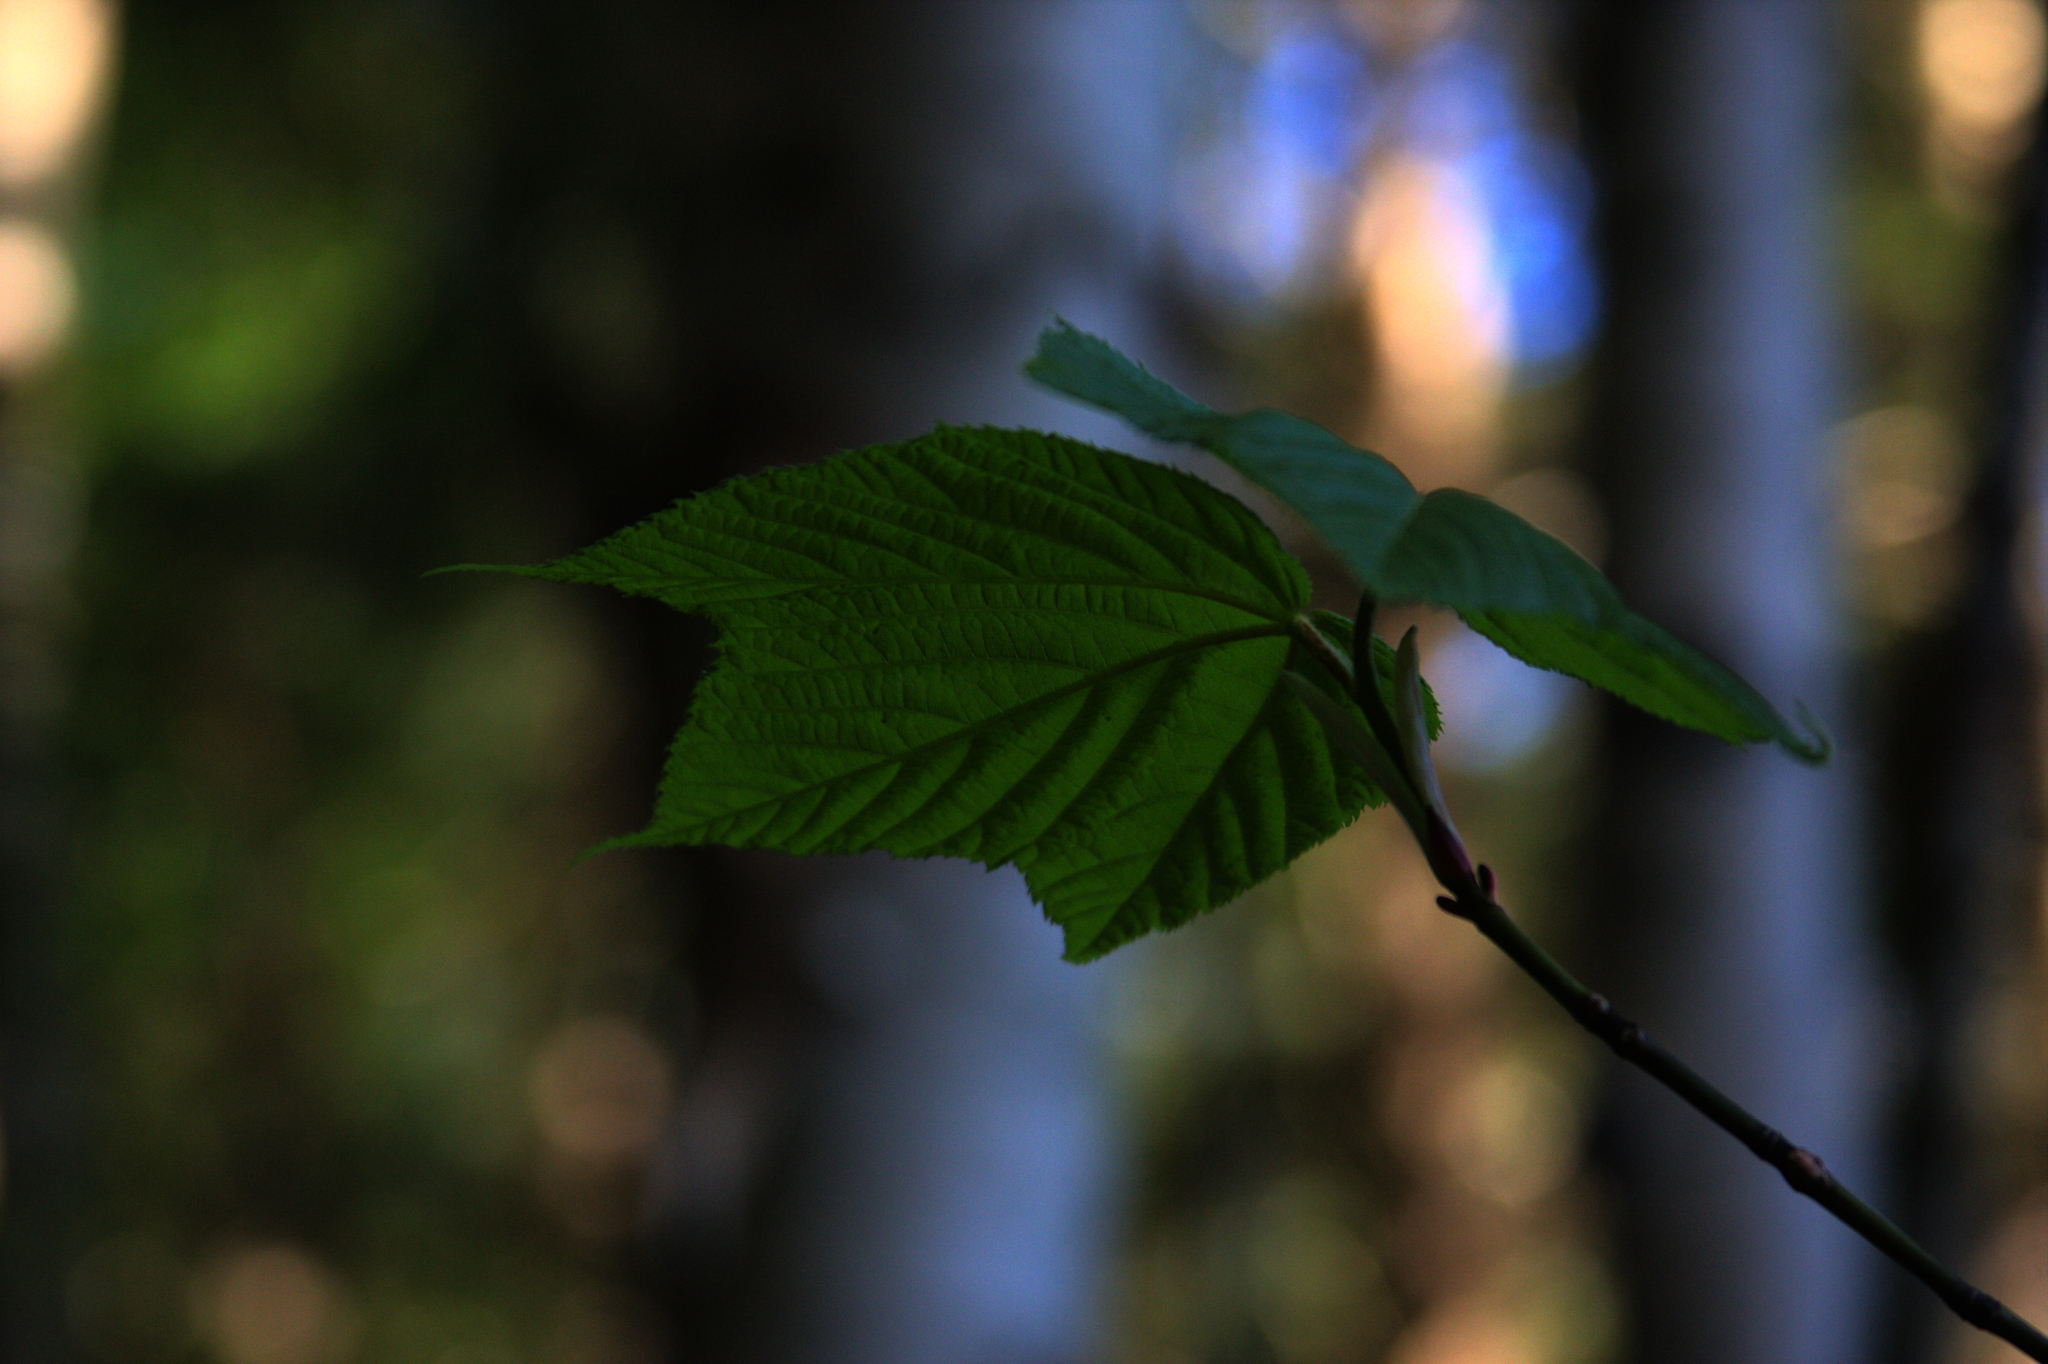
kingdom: Plantae
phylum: Tracheophyta
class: Magnoliopsida
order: Sapindales
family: Sapindaceae
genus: Acer
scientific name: Acer pensylvanicum
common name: Moosewood
